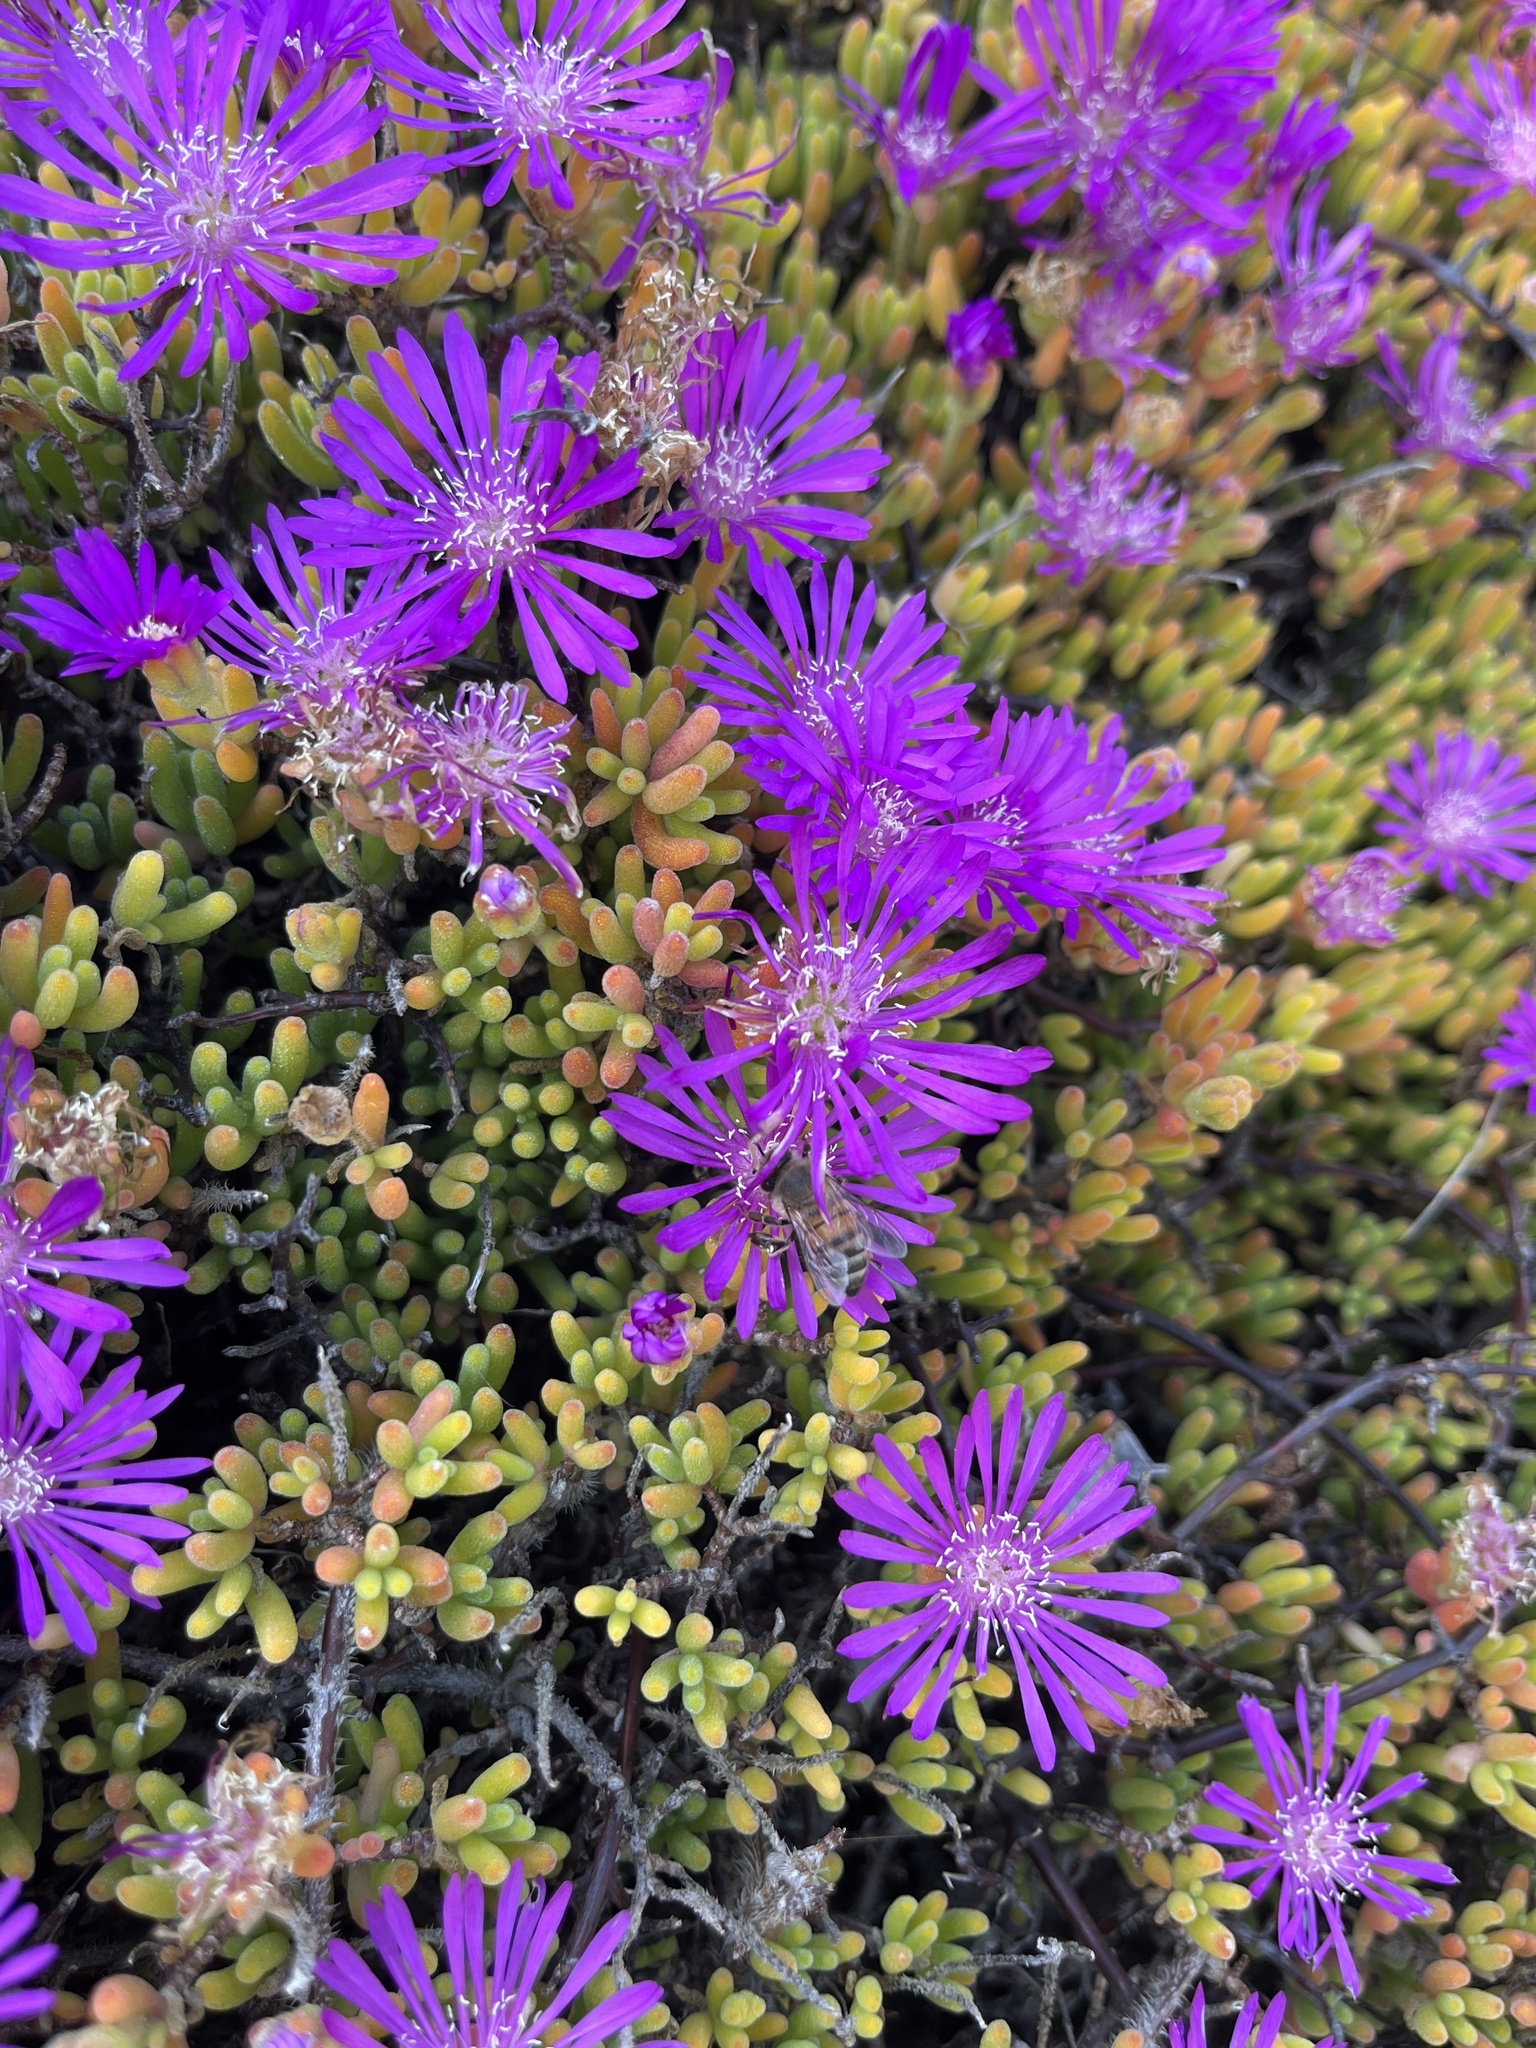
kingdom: Animalia
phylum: Arthropoda
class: Insecta
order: Hymenoptera
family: Apidae
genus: Apis
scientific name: Apis mellifera
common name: Honey bee
